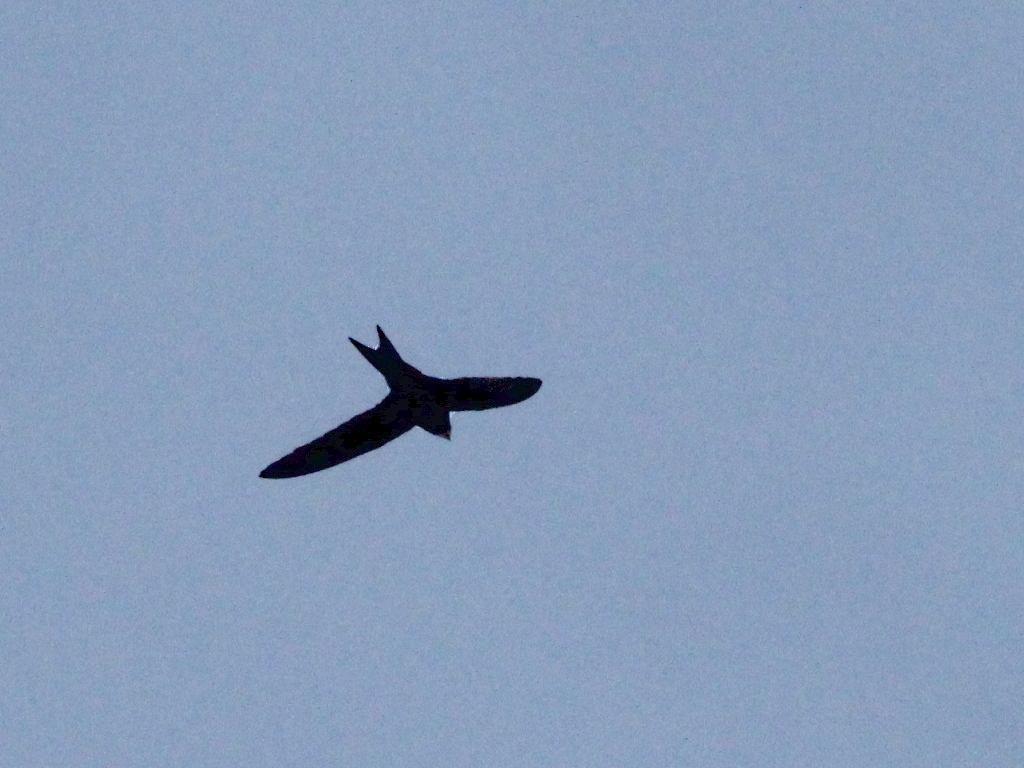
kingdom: Animalia
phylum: Chordata
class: Aves
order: Apodiformes
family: Apodidae
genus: Apus
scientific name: Apus apus
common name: Common swift
